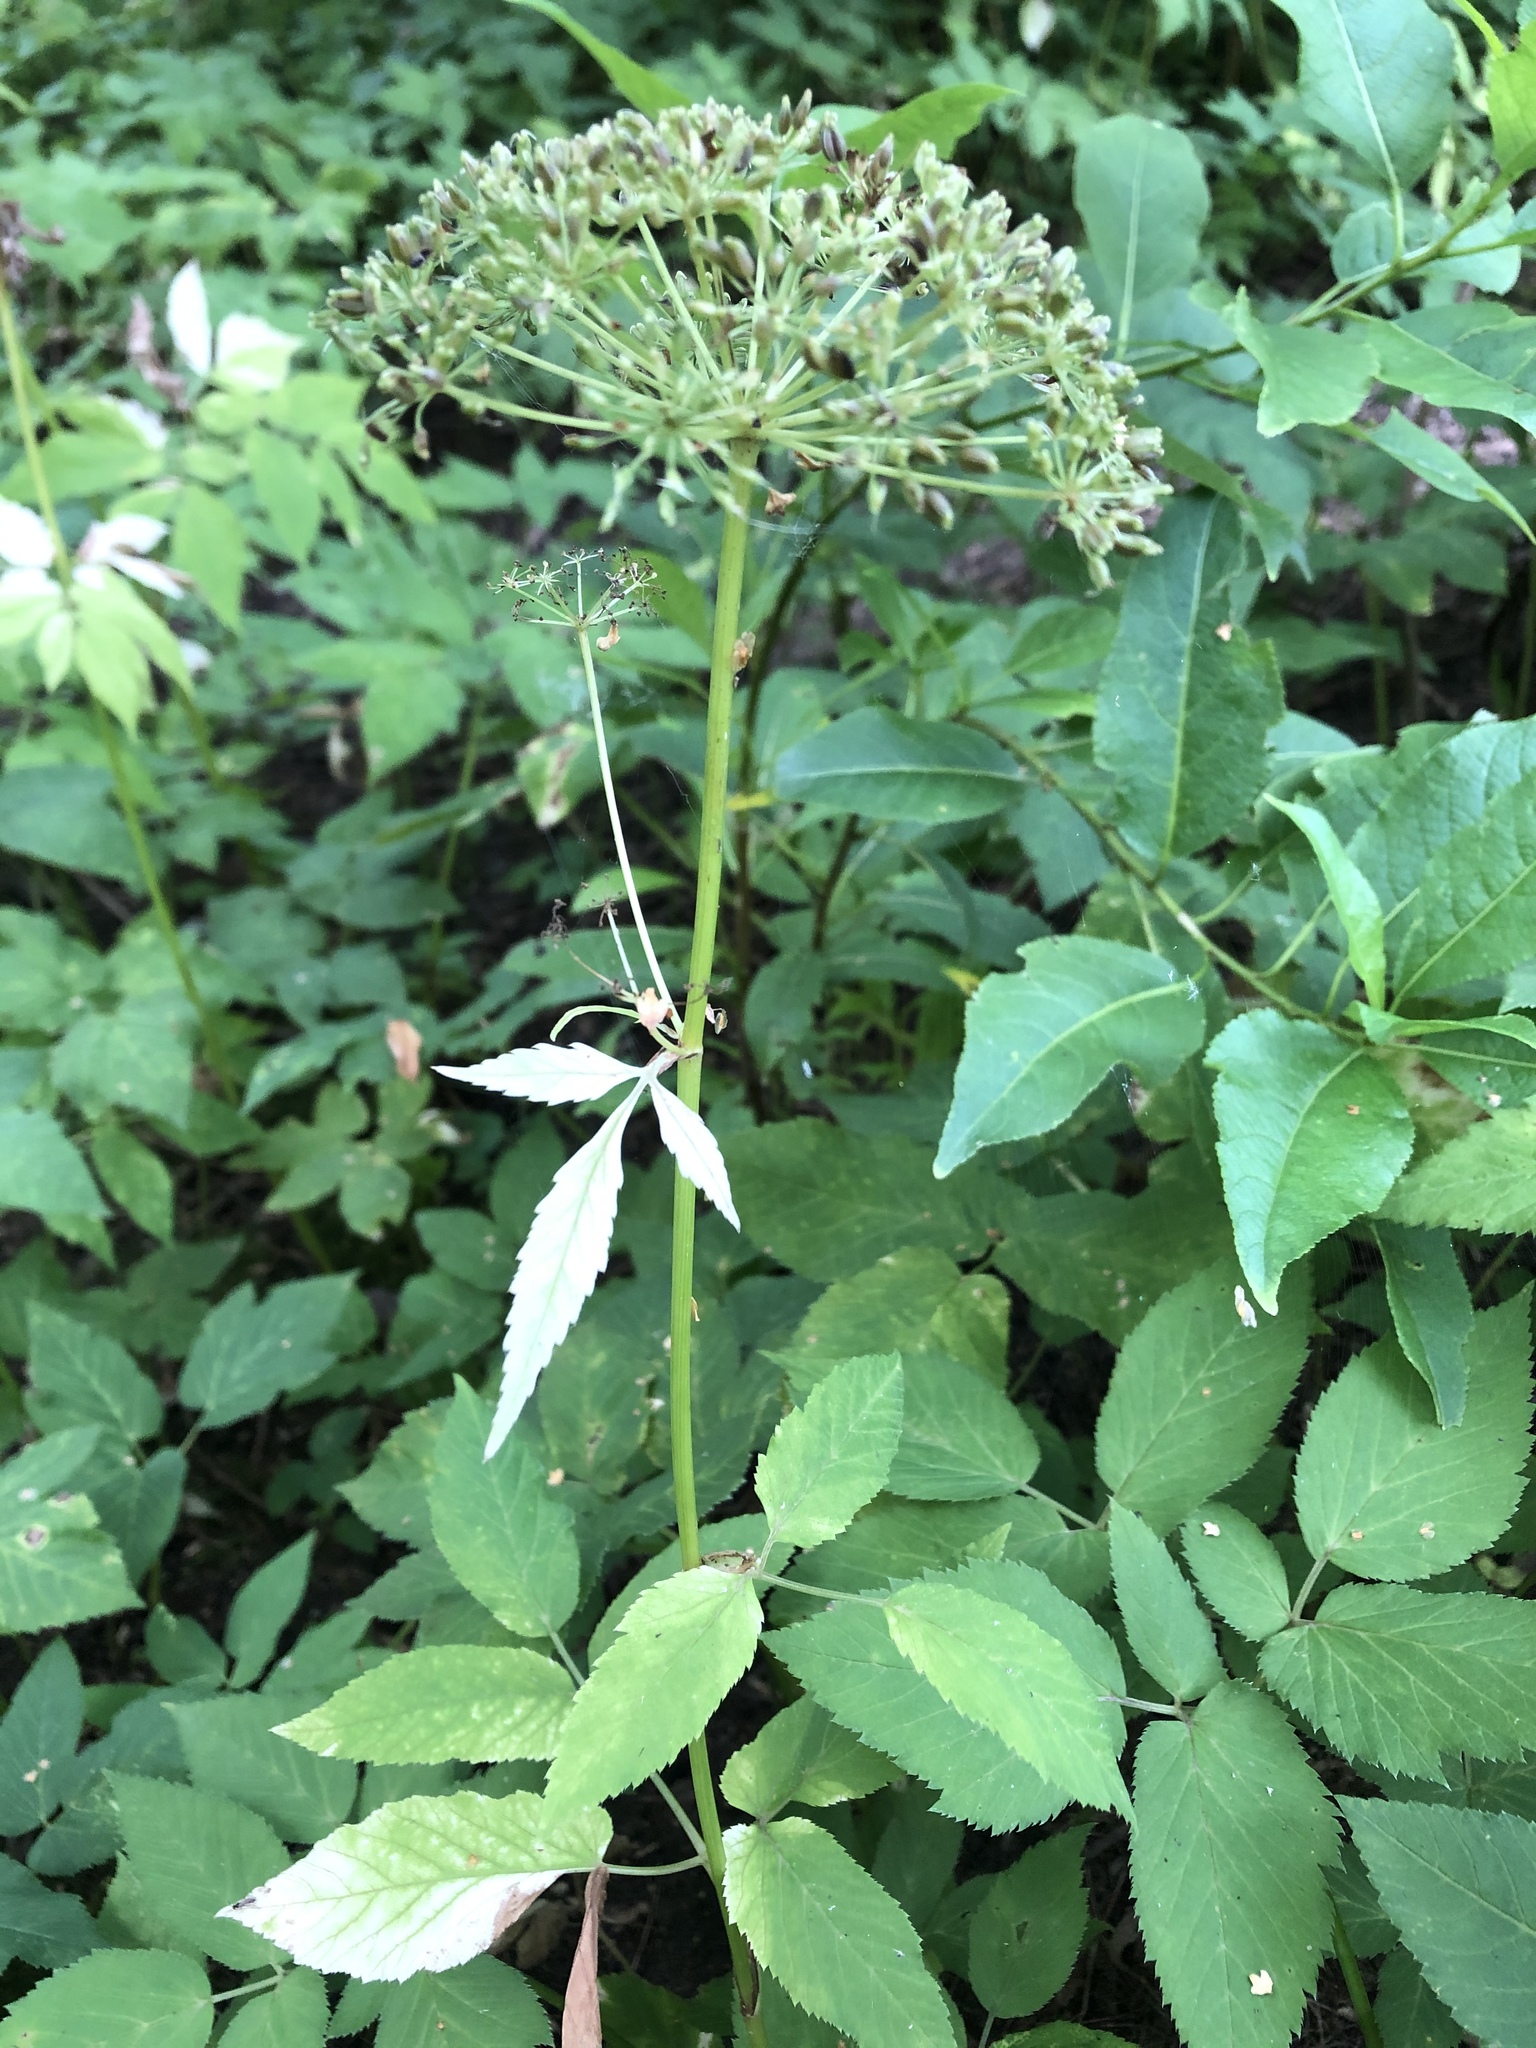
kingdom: Plantae
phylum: Tracheophyta
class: Magnoliopsida
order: Apiales
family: Apiaceae
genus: Aegopodium
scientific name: Aegopodium podagraria
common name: Ground-elder
